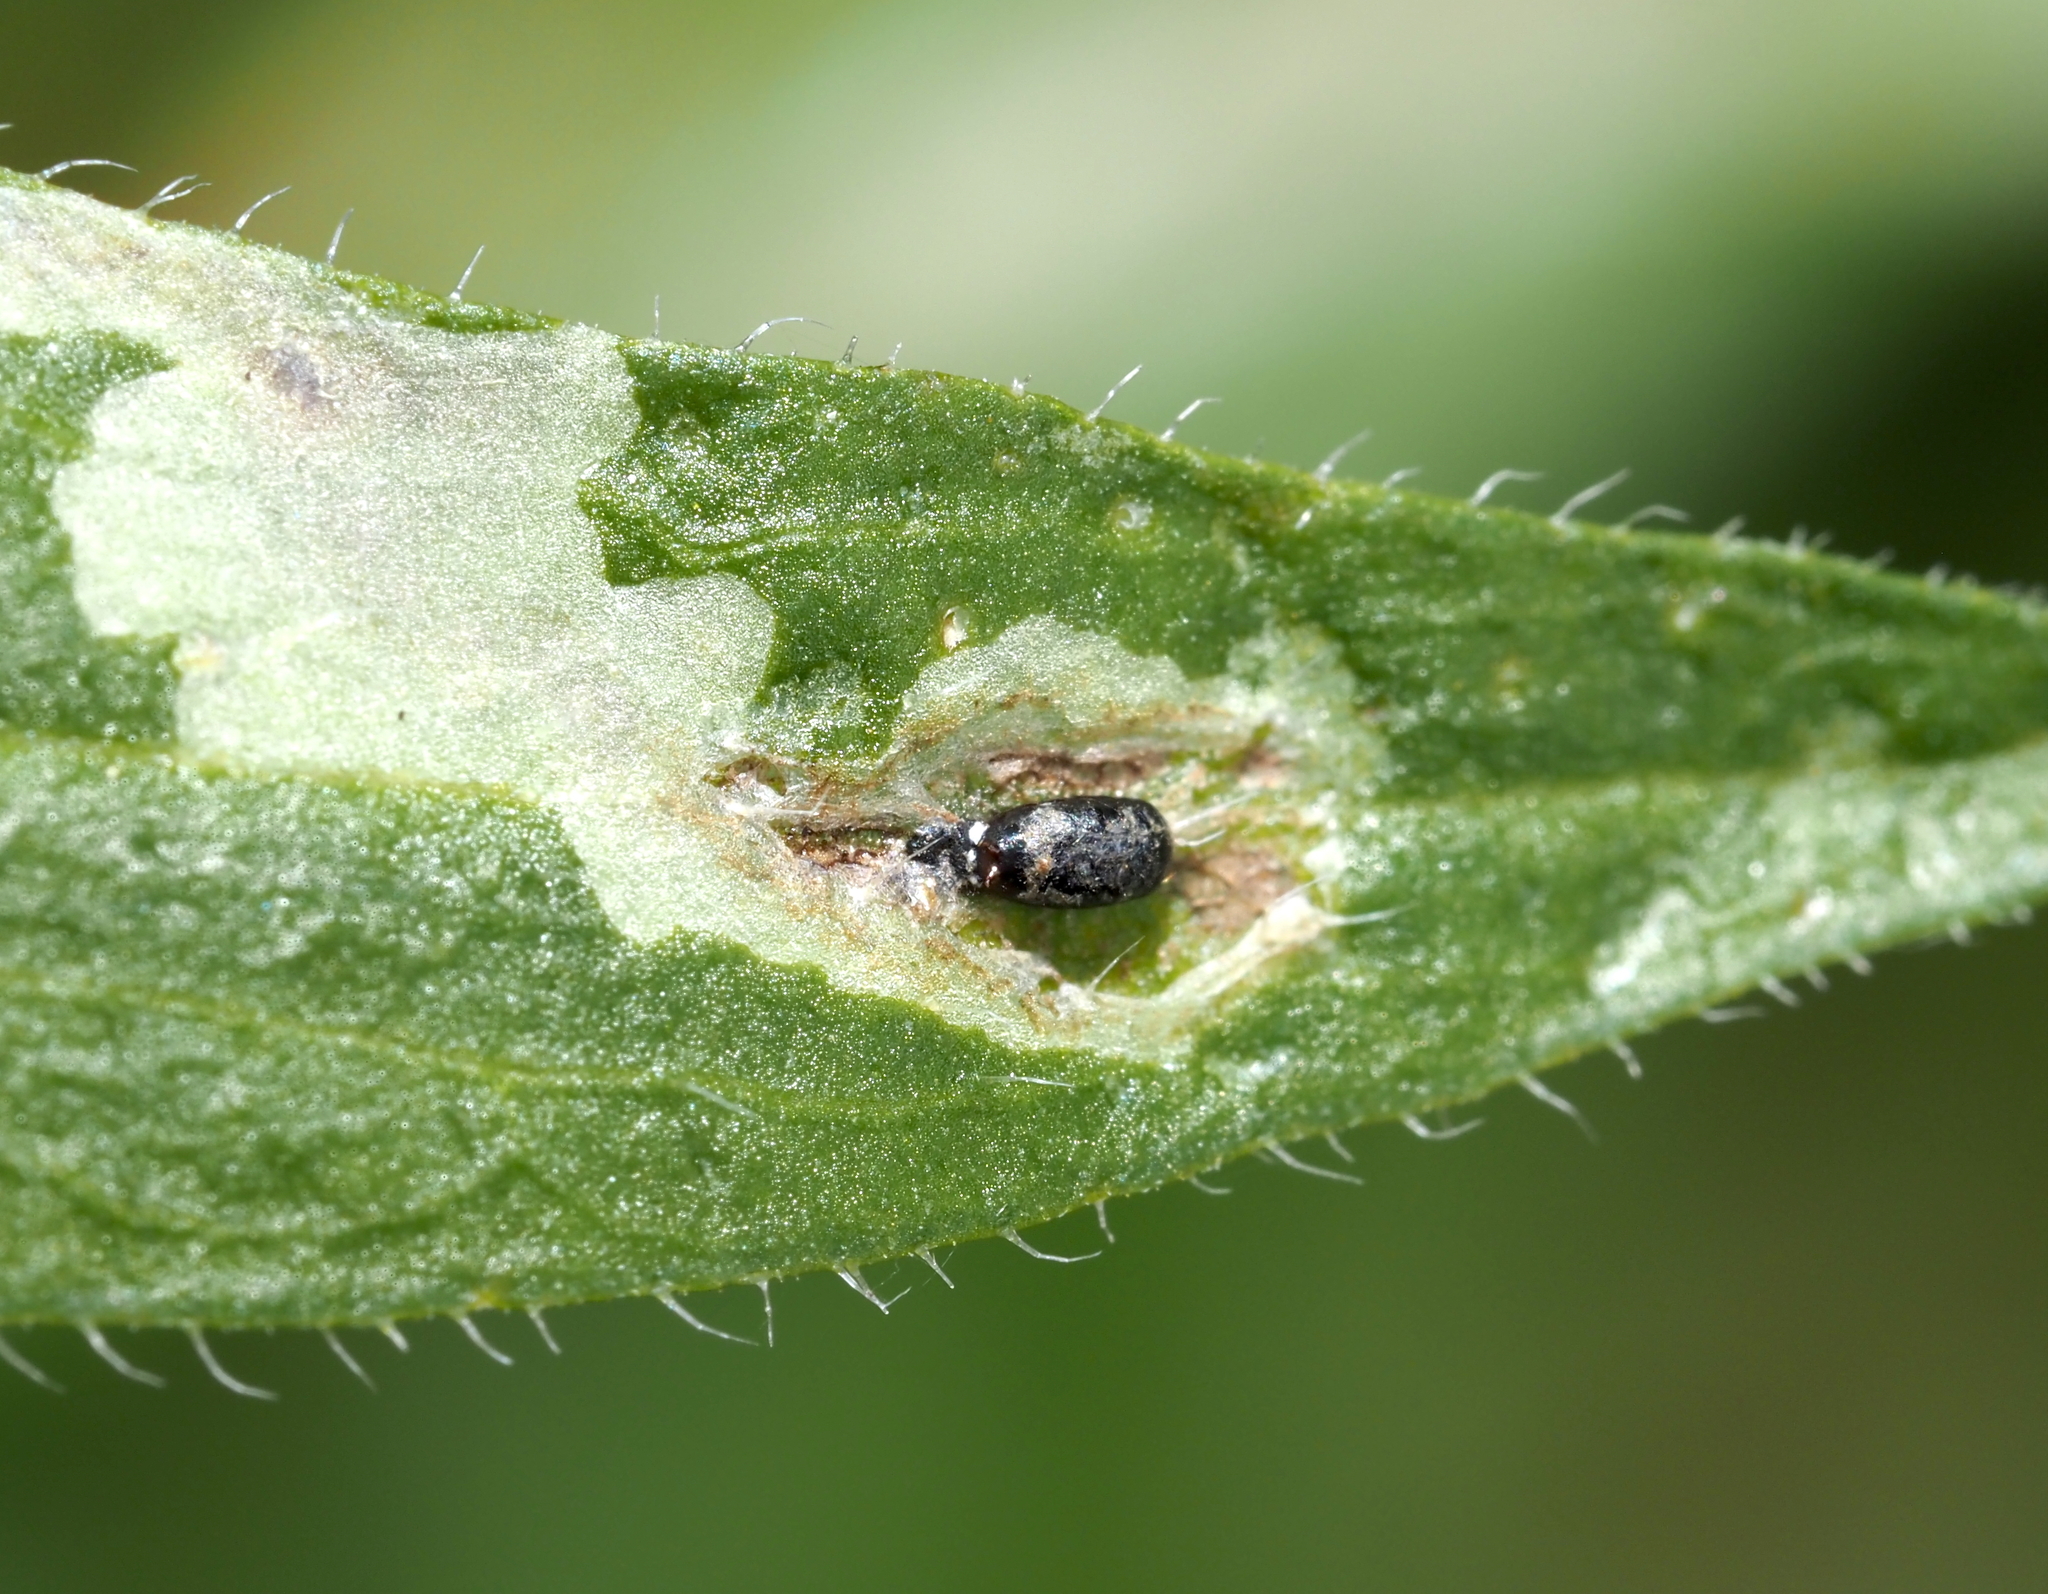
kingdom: Animalia
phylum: Arthropoda
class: Insecta
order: Diptera
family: Agromyzidae
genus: Calycomyza
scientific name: Calycomyza humeralis
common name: Aster leafminer
